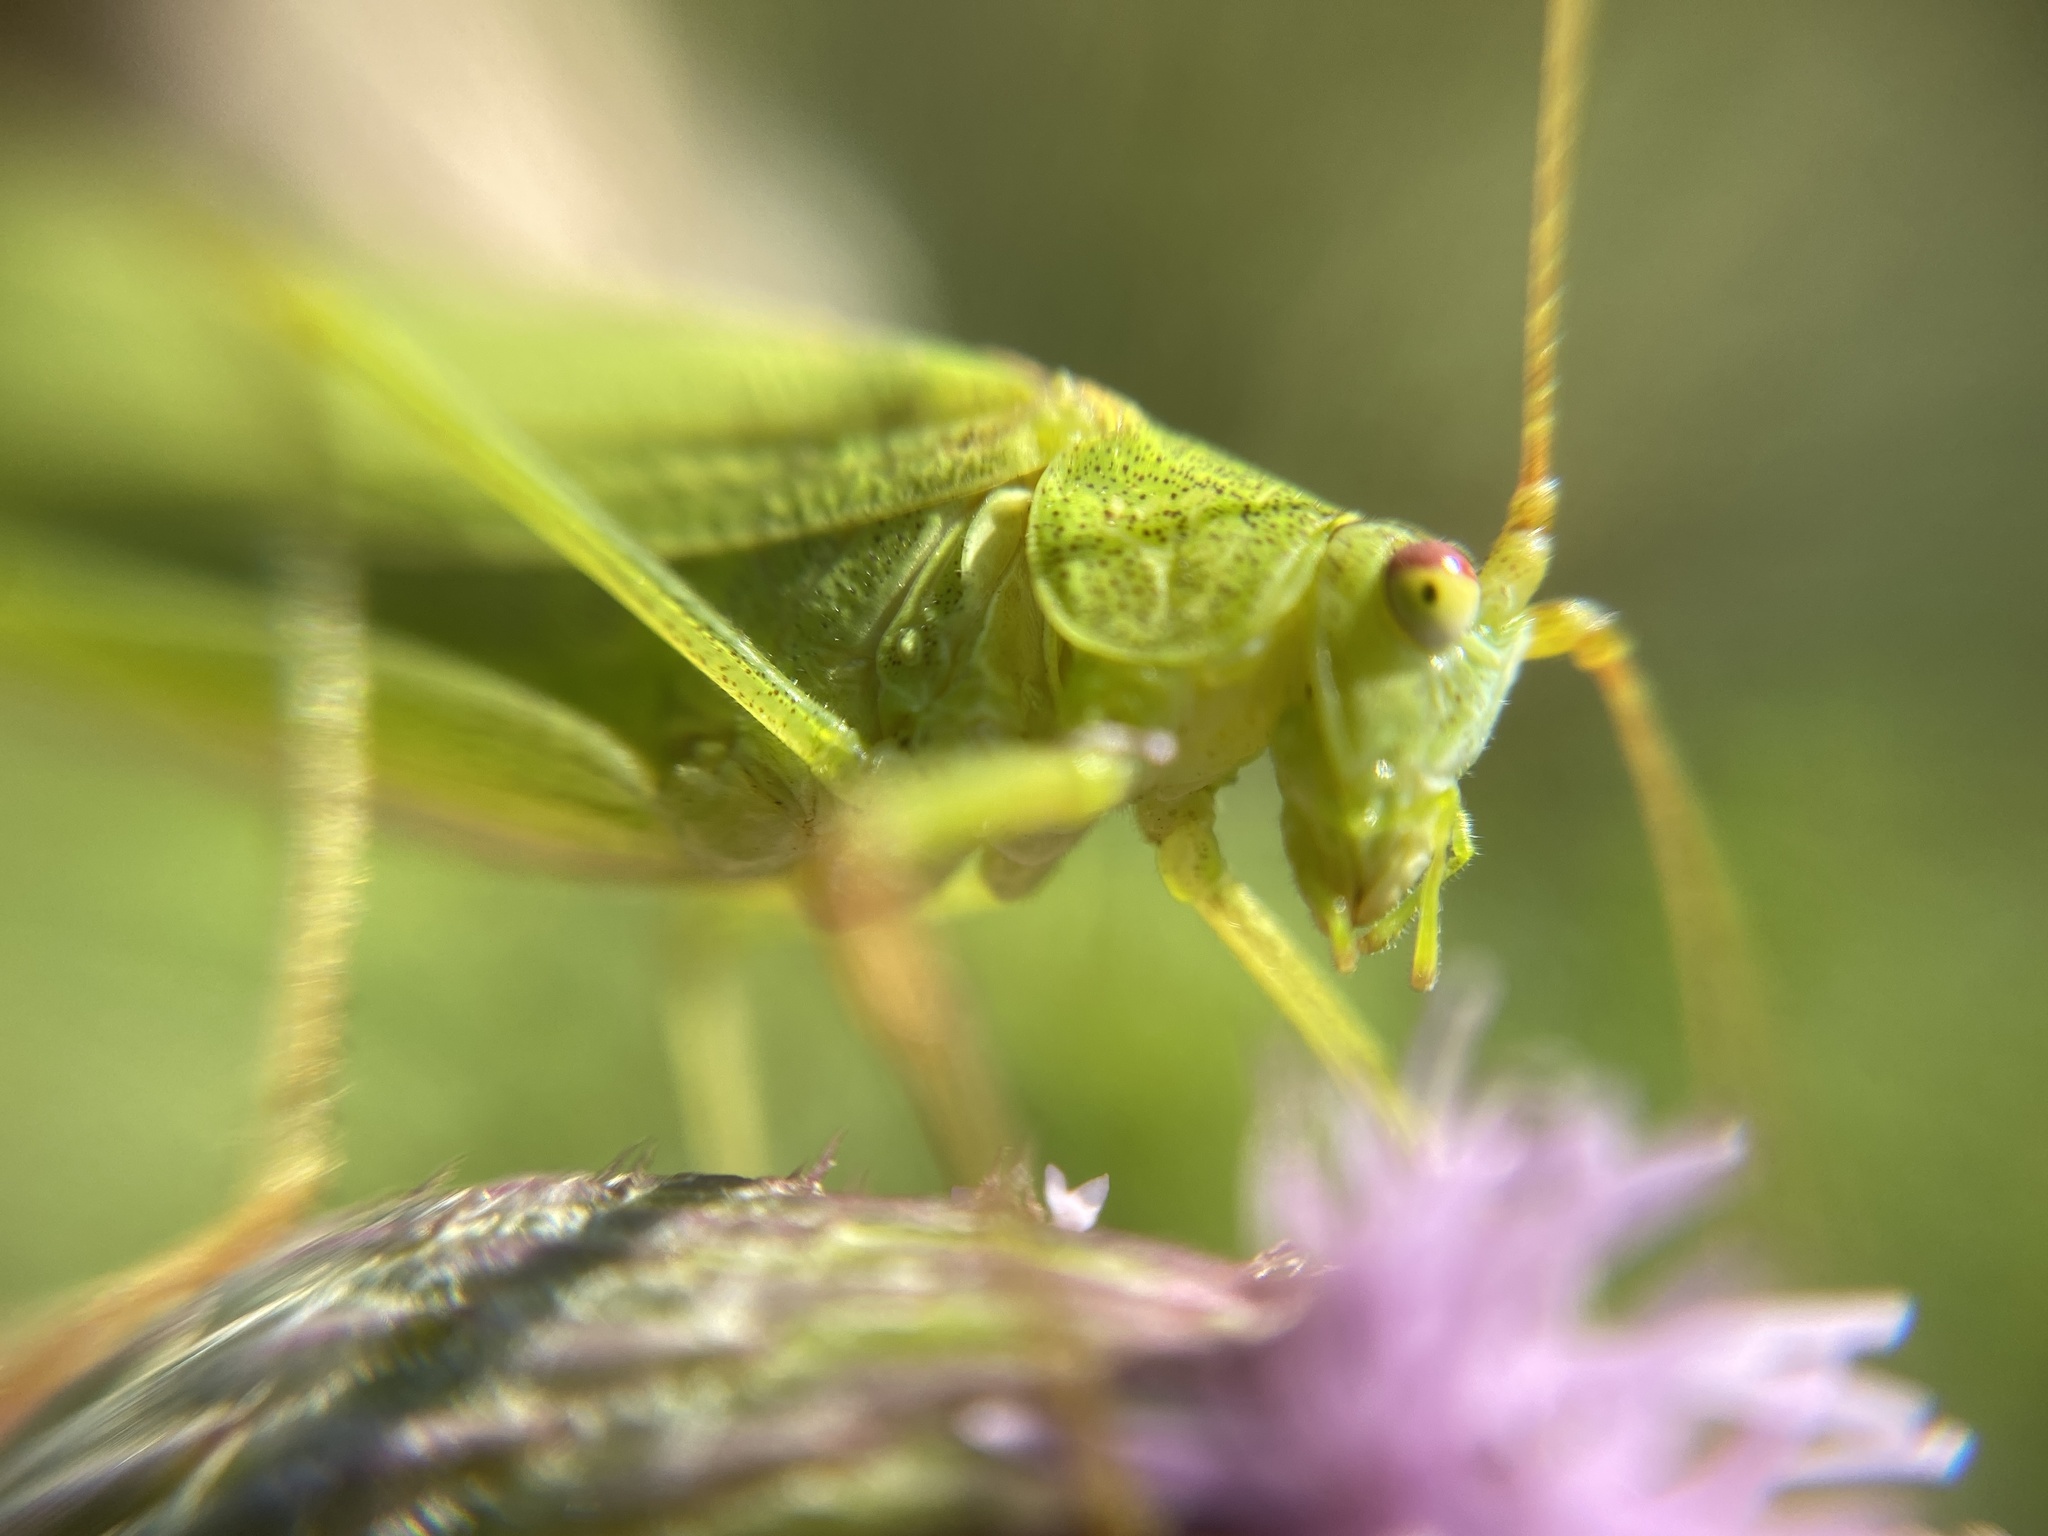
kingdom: Animalia
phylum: Arthropoda
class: Insecta
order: Orthoptera
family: Tettigoniidae
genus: Phaneroptera
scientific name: Phaneroptera falcata
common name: Sickle-bearing bush-cricket
